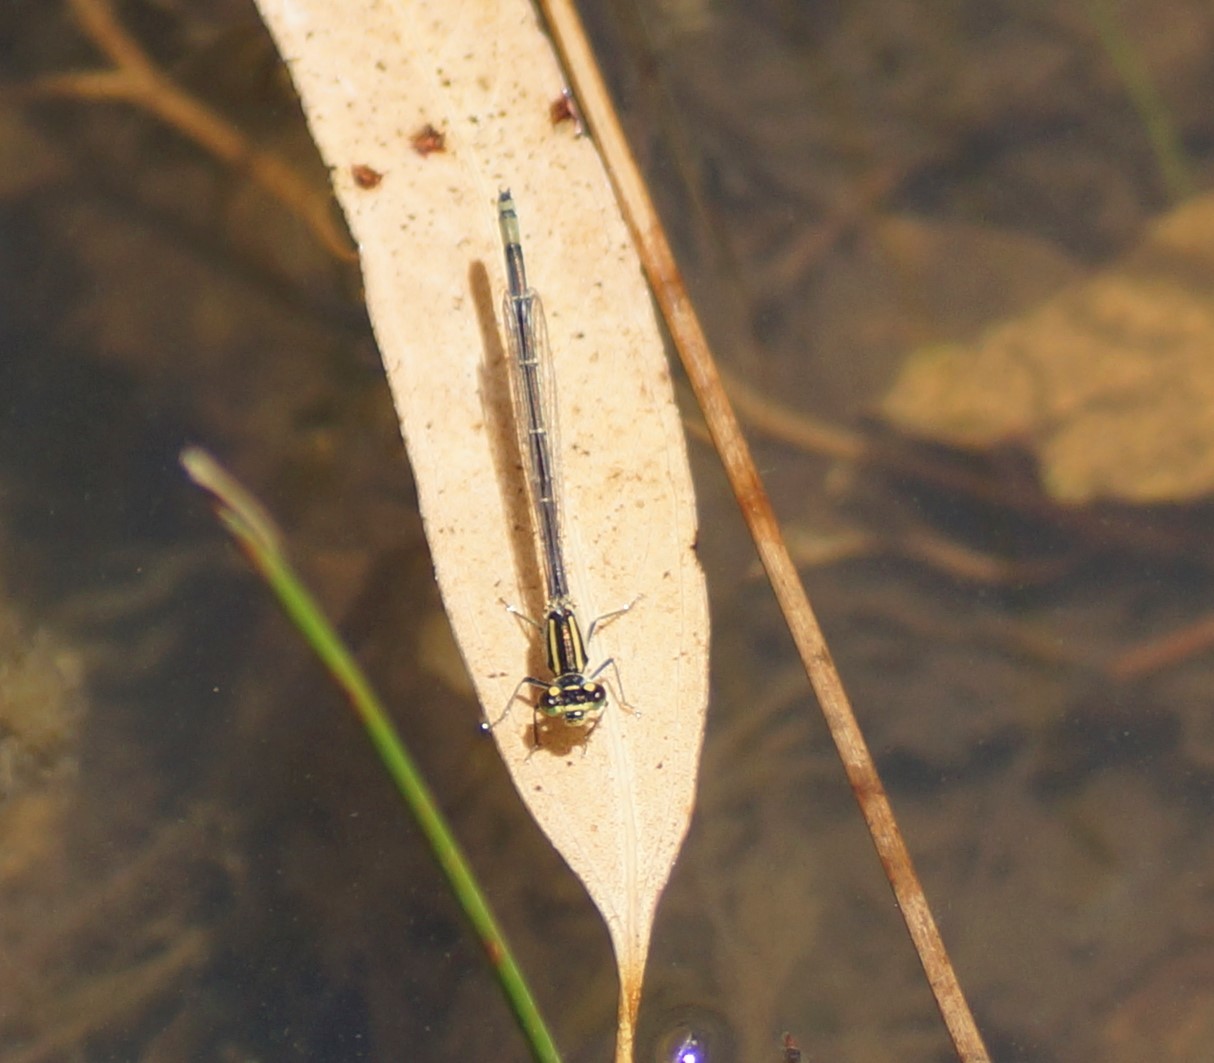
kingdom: Animalia
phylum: Arthropoda
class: Insecta
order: Odonata
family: Coenagrionidae
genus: Ischnura
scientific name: Ischnura heterosticta
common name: Common bluetail
